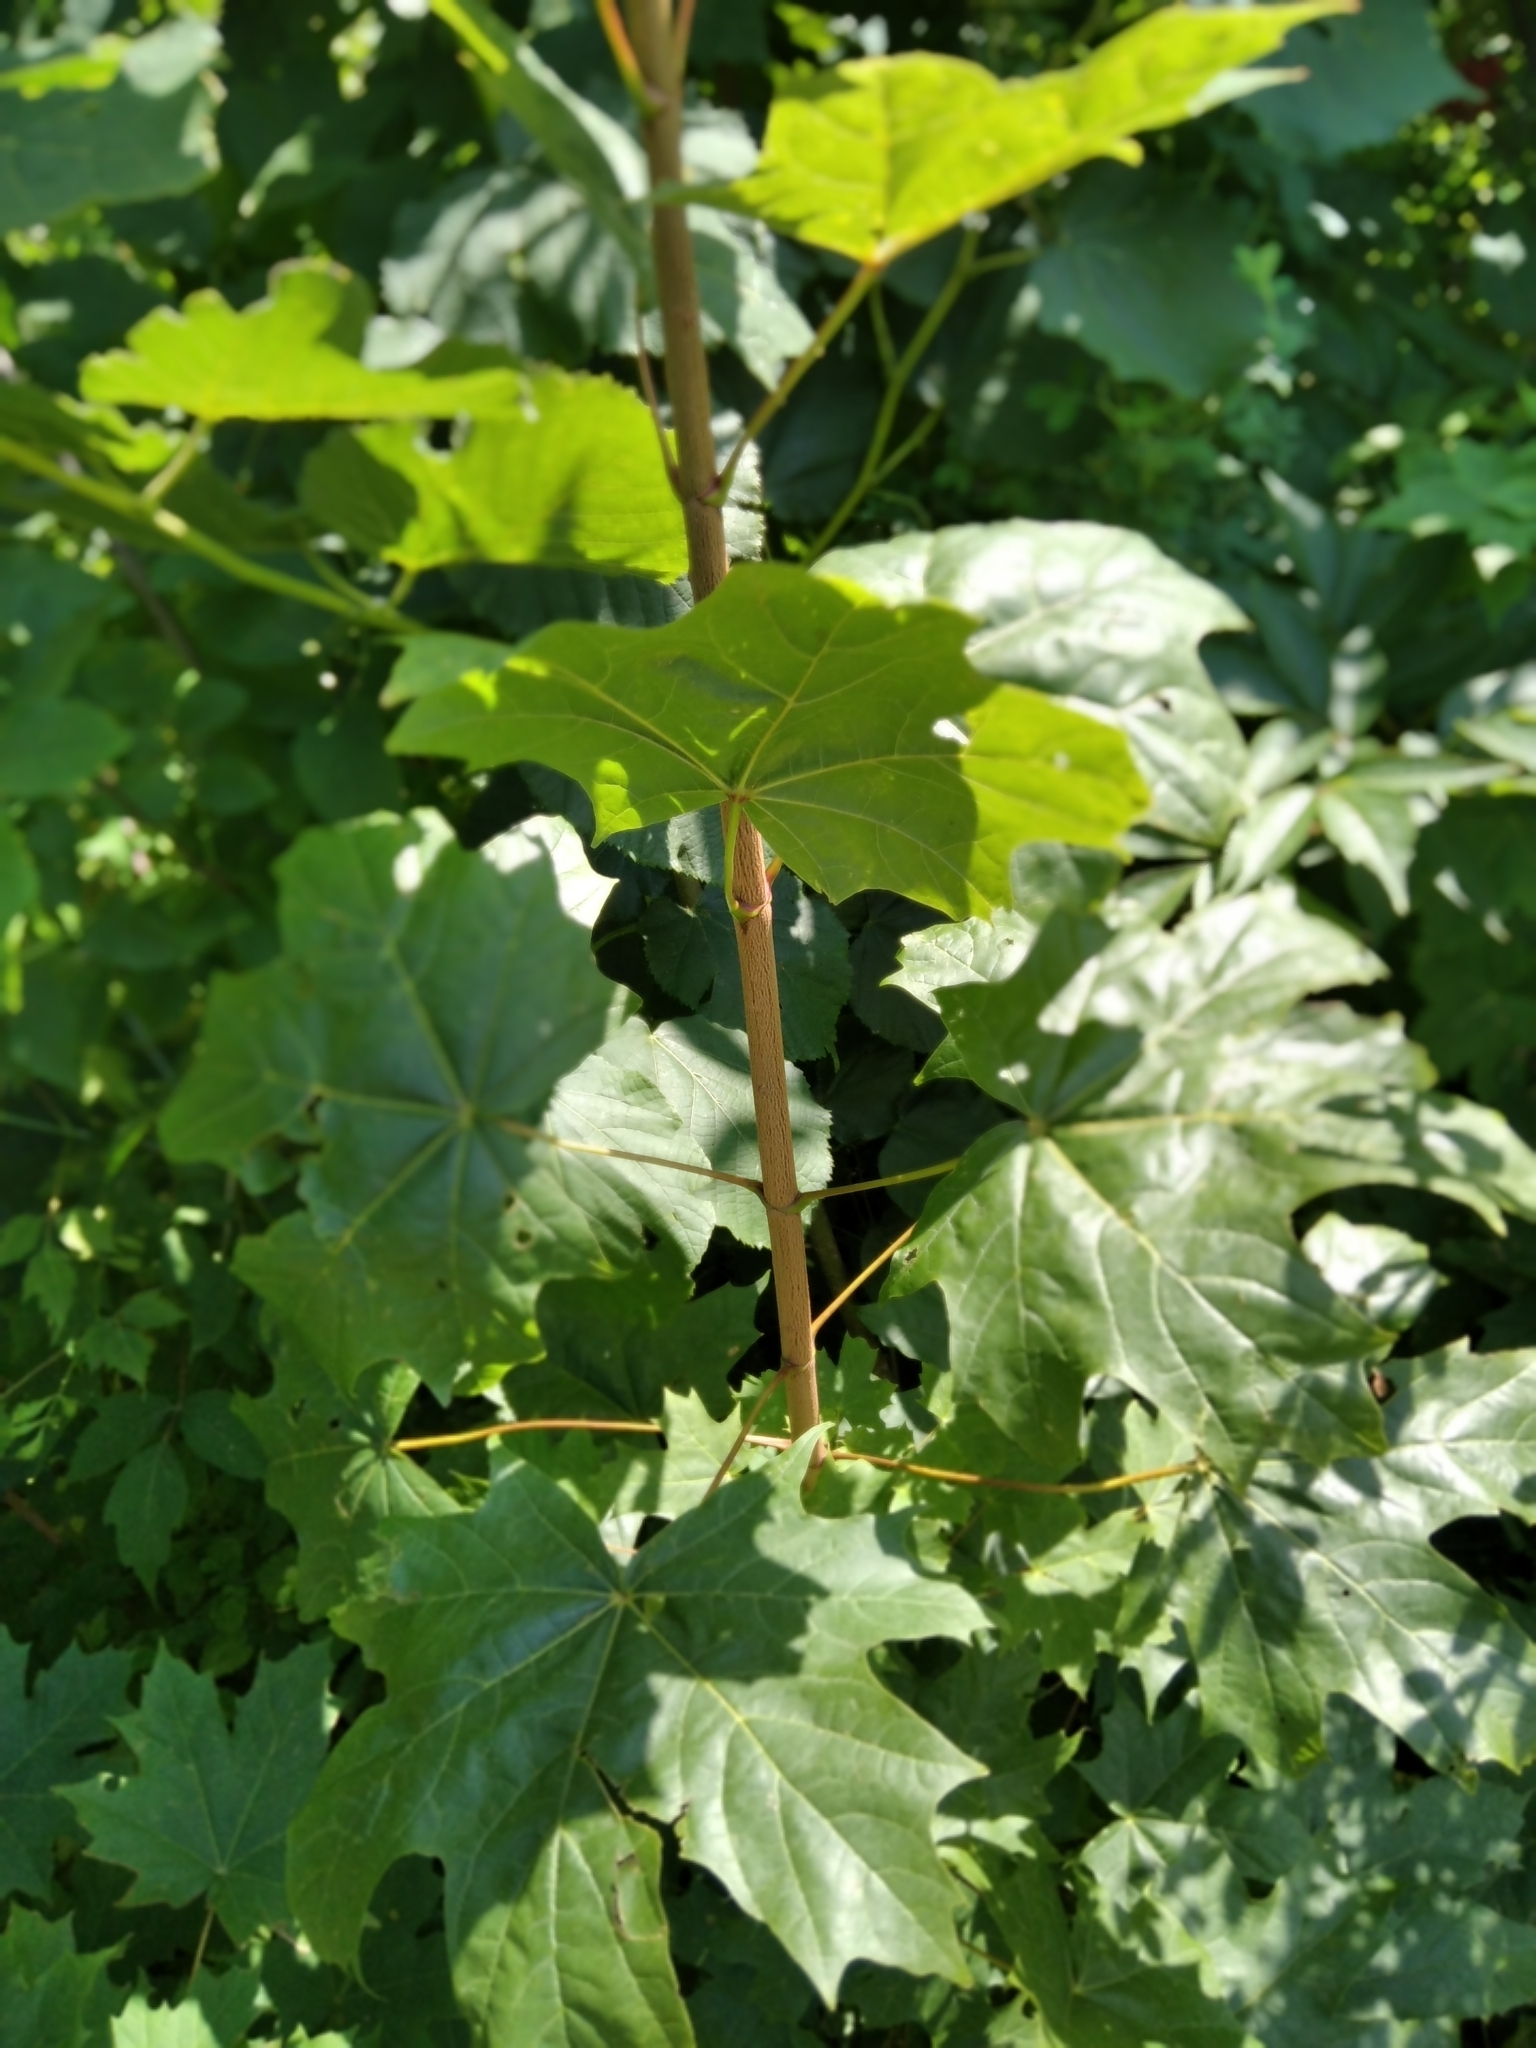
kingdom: Plantae
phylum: Tracheophyta
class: Magnoliopsida
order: Sapindales
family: Sapindaceae
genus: Acer
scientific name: Acer platanoides
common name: Norway maple
